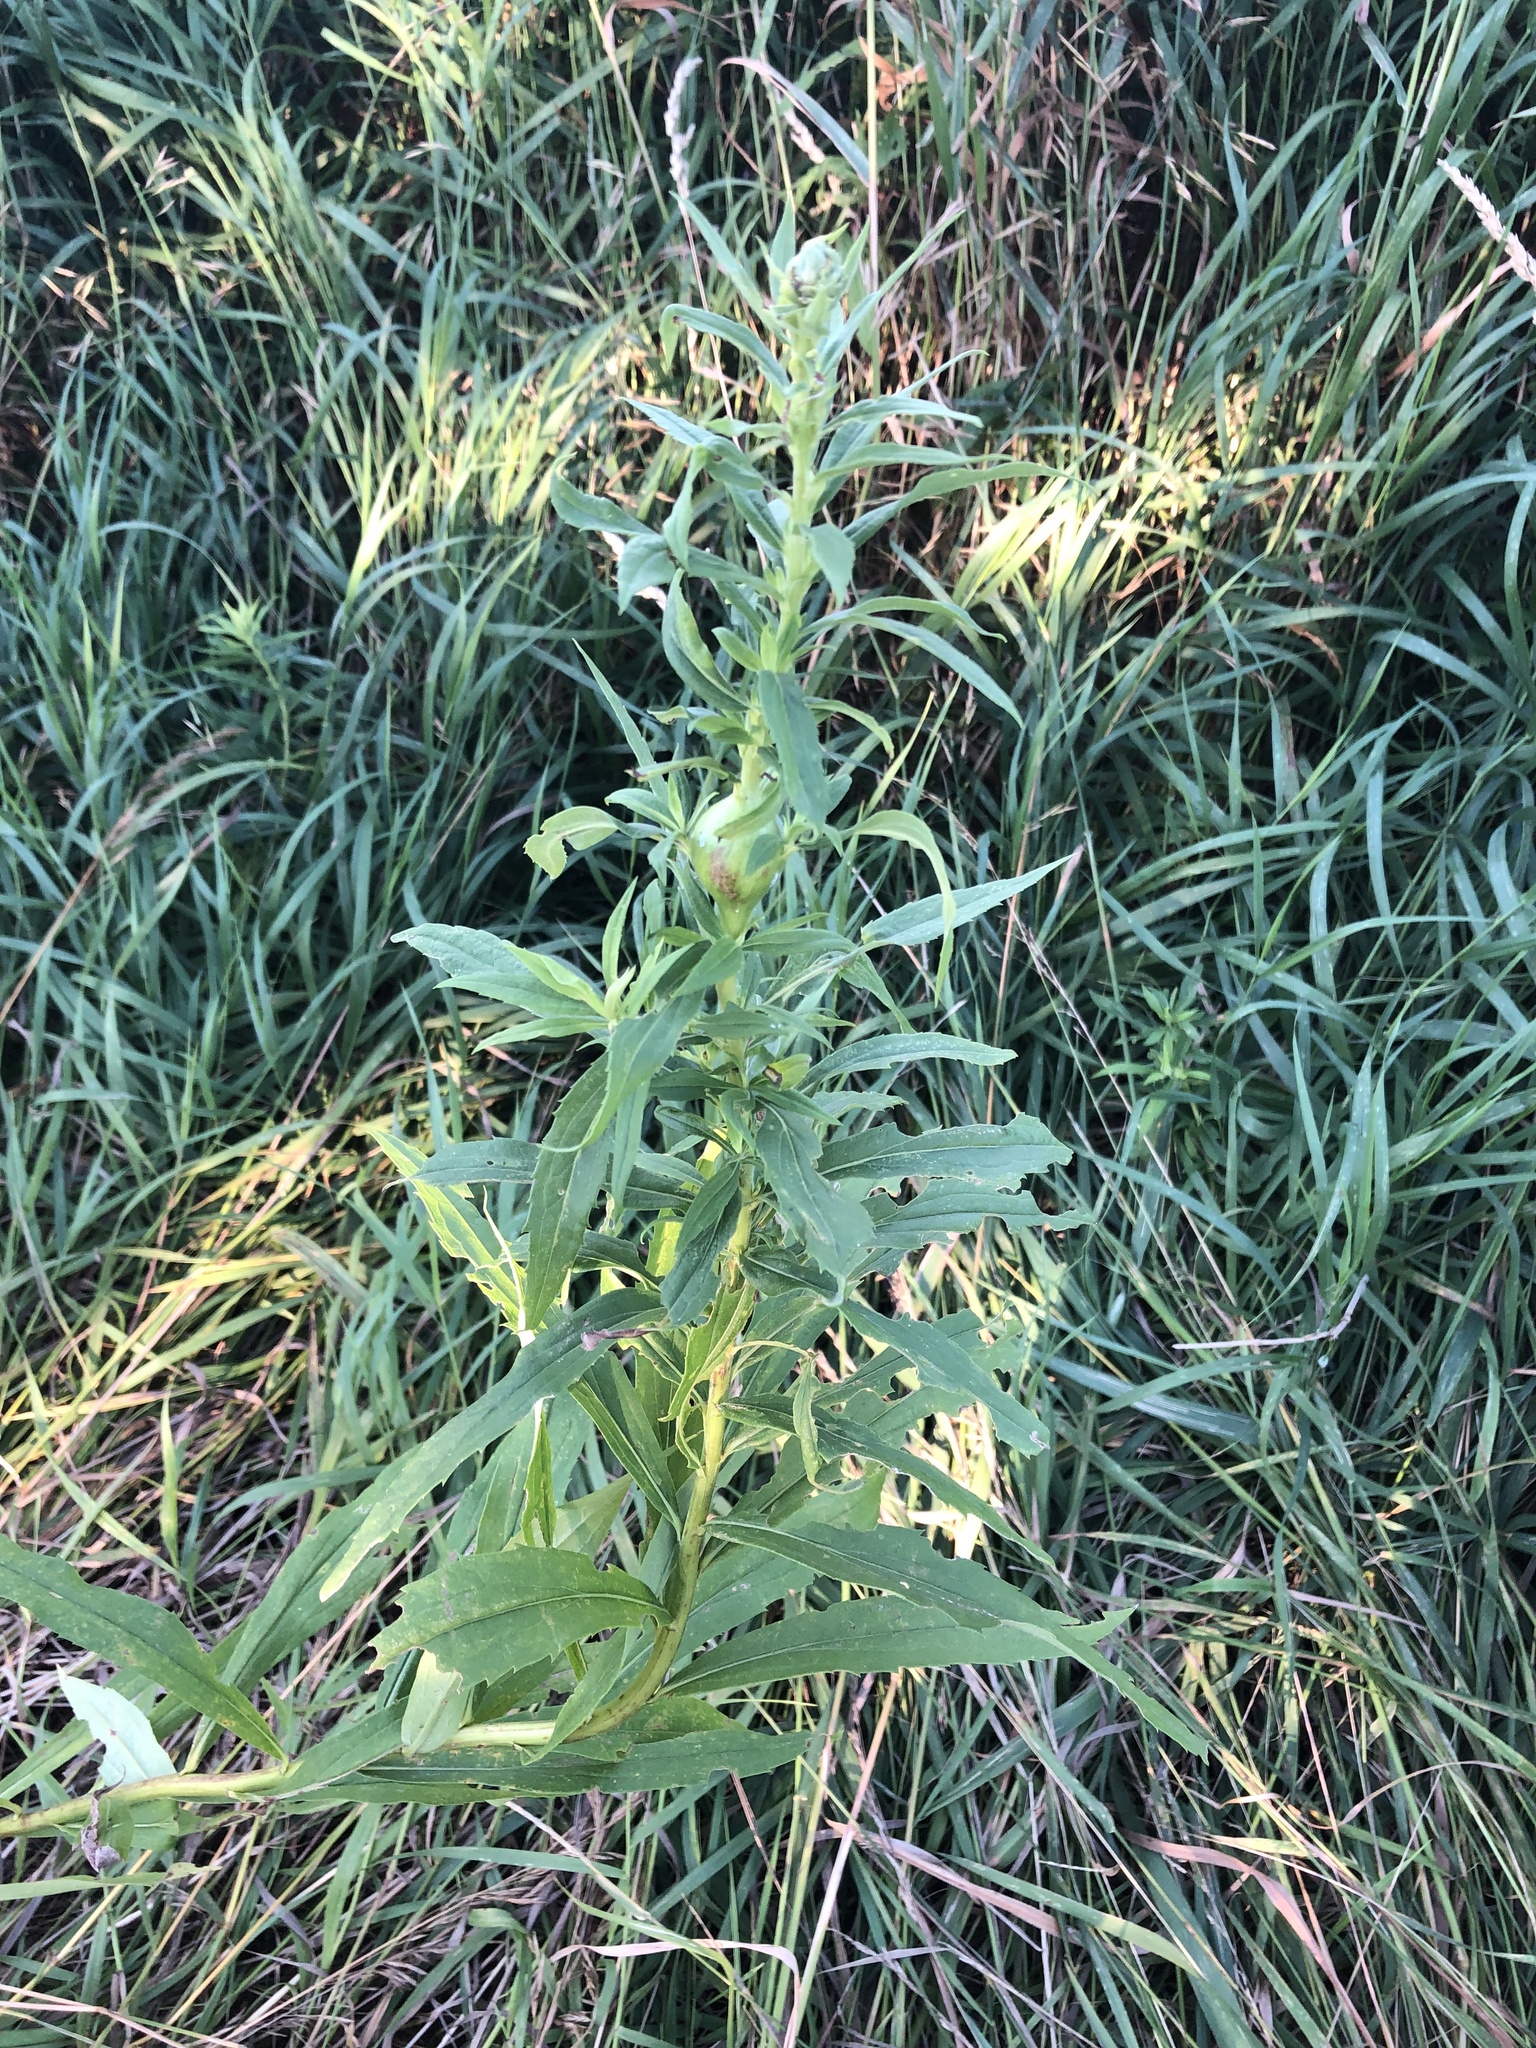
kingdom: Plantae
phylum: Tracheophyta
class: Magnoliopsida
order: Asterales
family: Asteraceae
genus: Solidago
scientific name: Solidago altissima
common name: Late goldenrod
